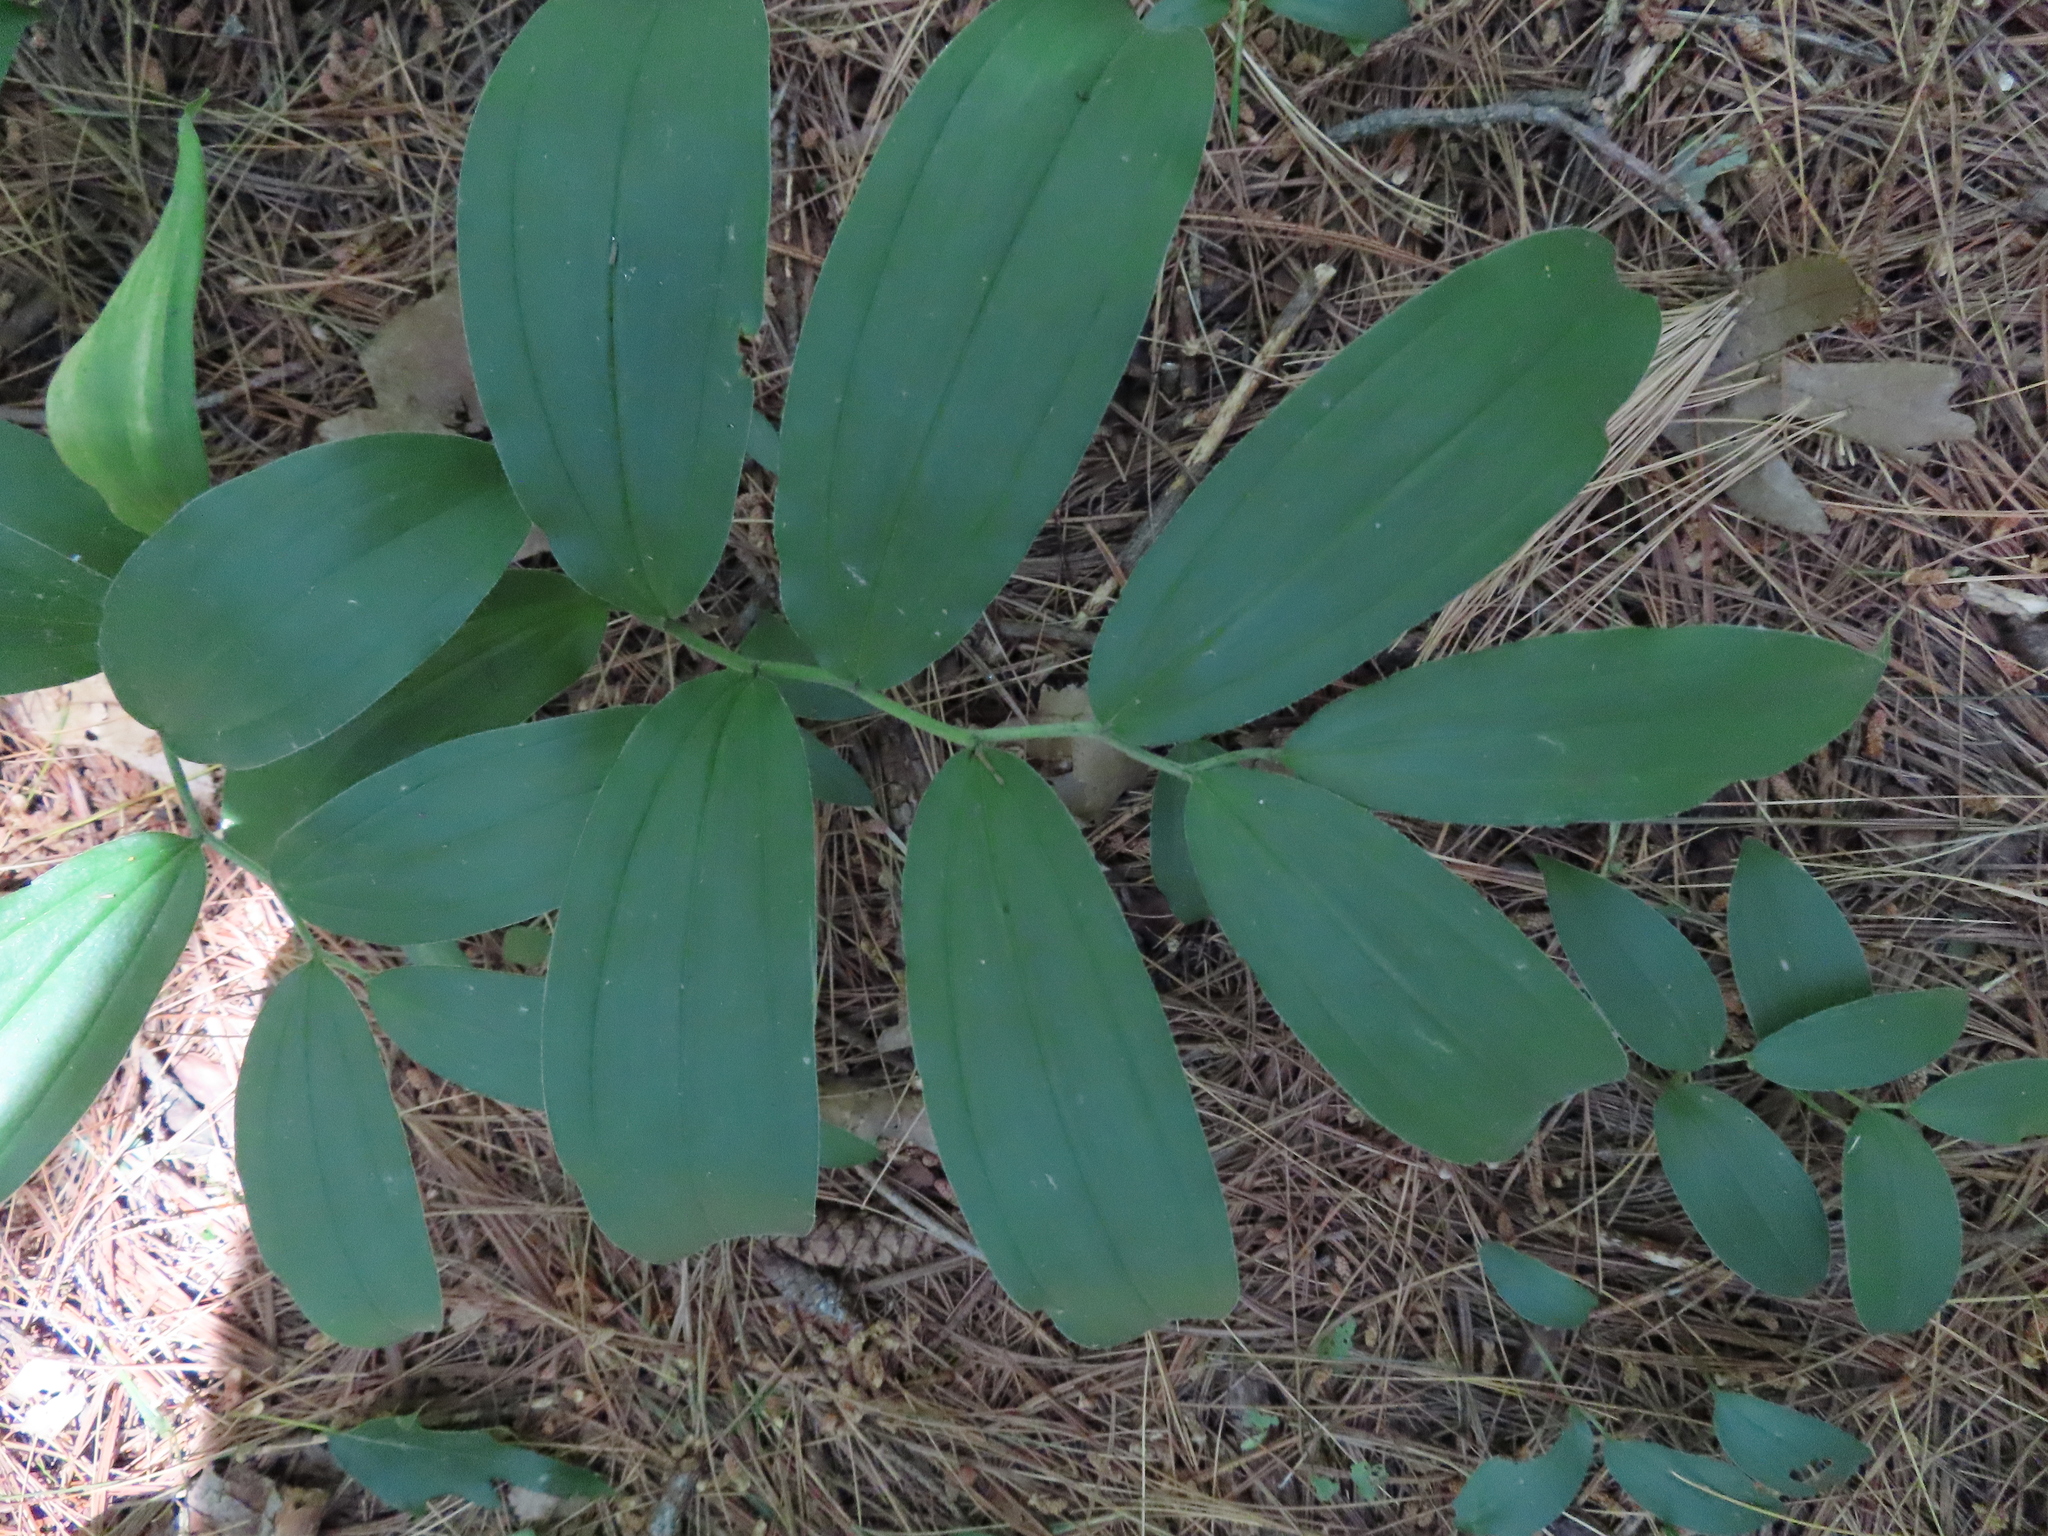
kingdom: Plantae
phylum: Tracheophyta
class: Liliopsida
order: Asparagales
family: Asparagaceae
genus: Maianthemum
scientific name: Maianthemum racemosum
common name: False spikenard
